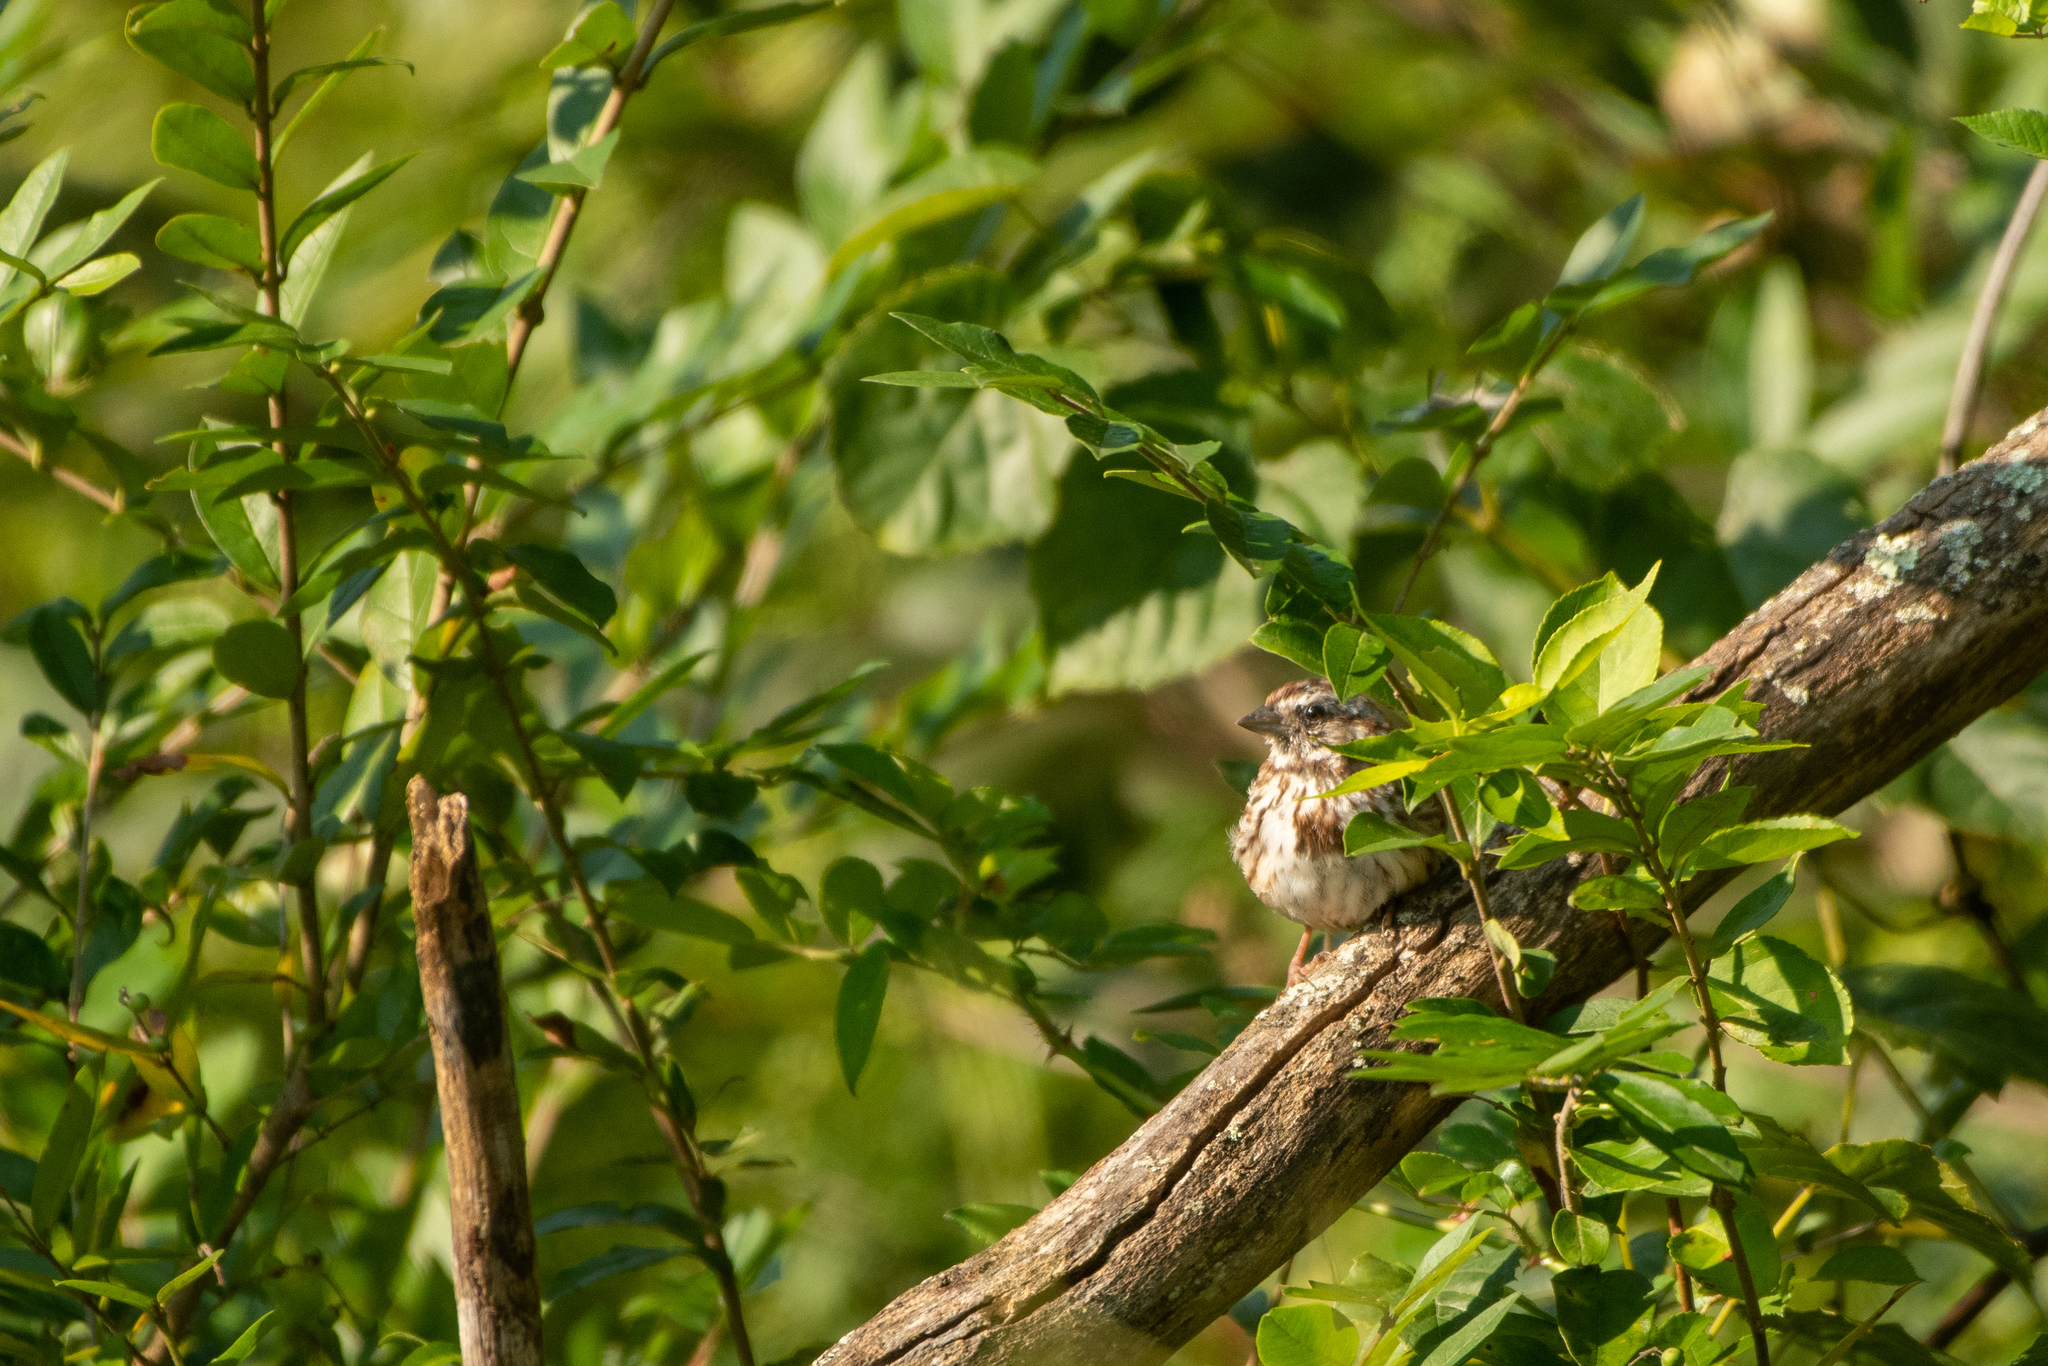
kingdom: Animalia
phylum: Chordata
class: Aves
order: Passeriformes
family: Passerellidae
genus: Melospiza
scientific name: Melospiza melodia
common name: Song sparrow
